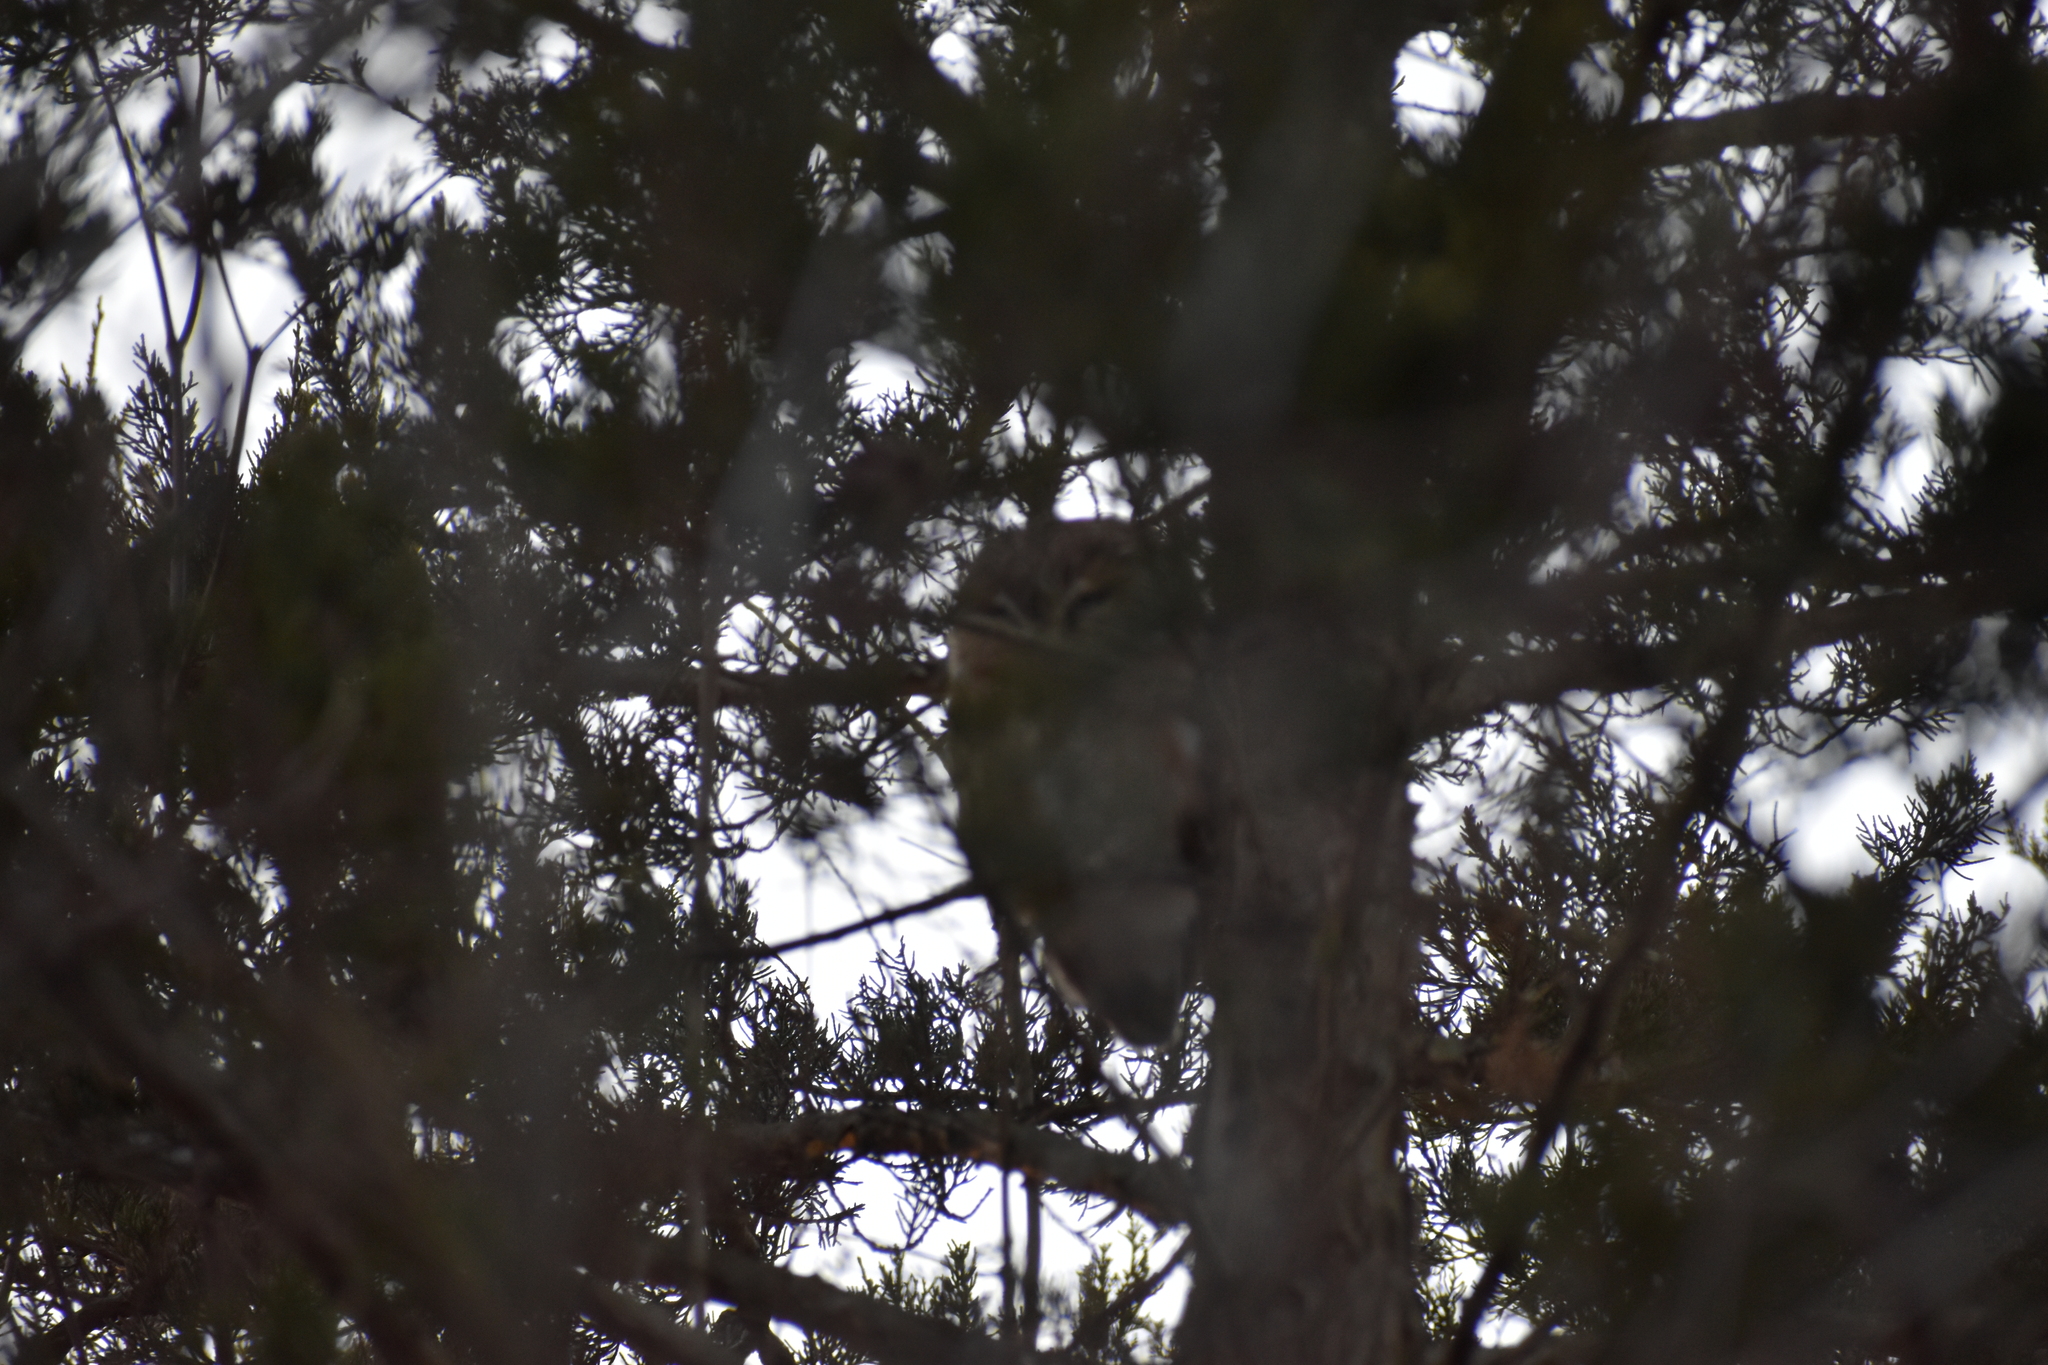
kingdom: Animalia
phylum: Chordata
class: Aves
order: Strigiformes
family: Strigidae
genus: Aegolius
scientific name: Aegolius acadicus
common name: Northern saw-whet owl
